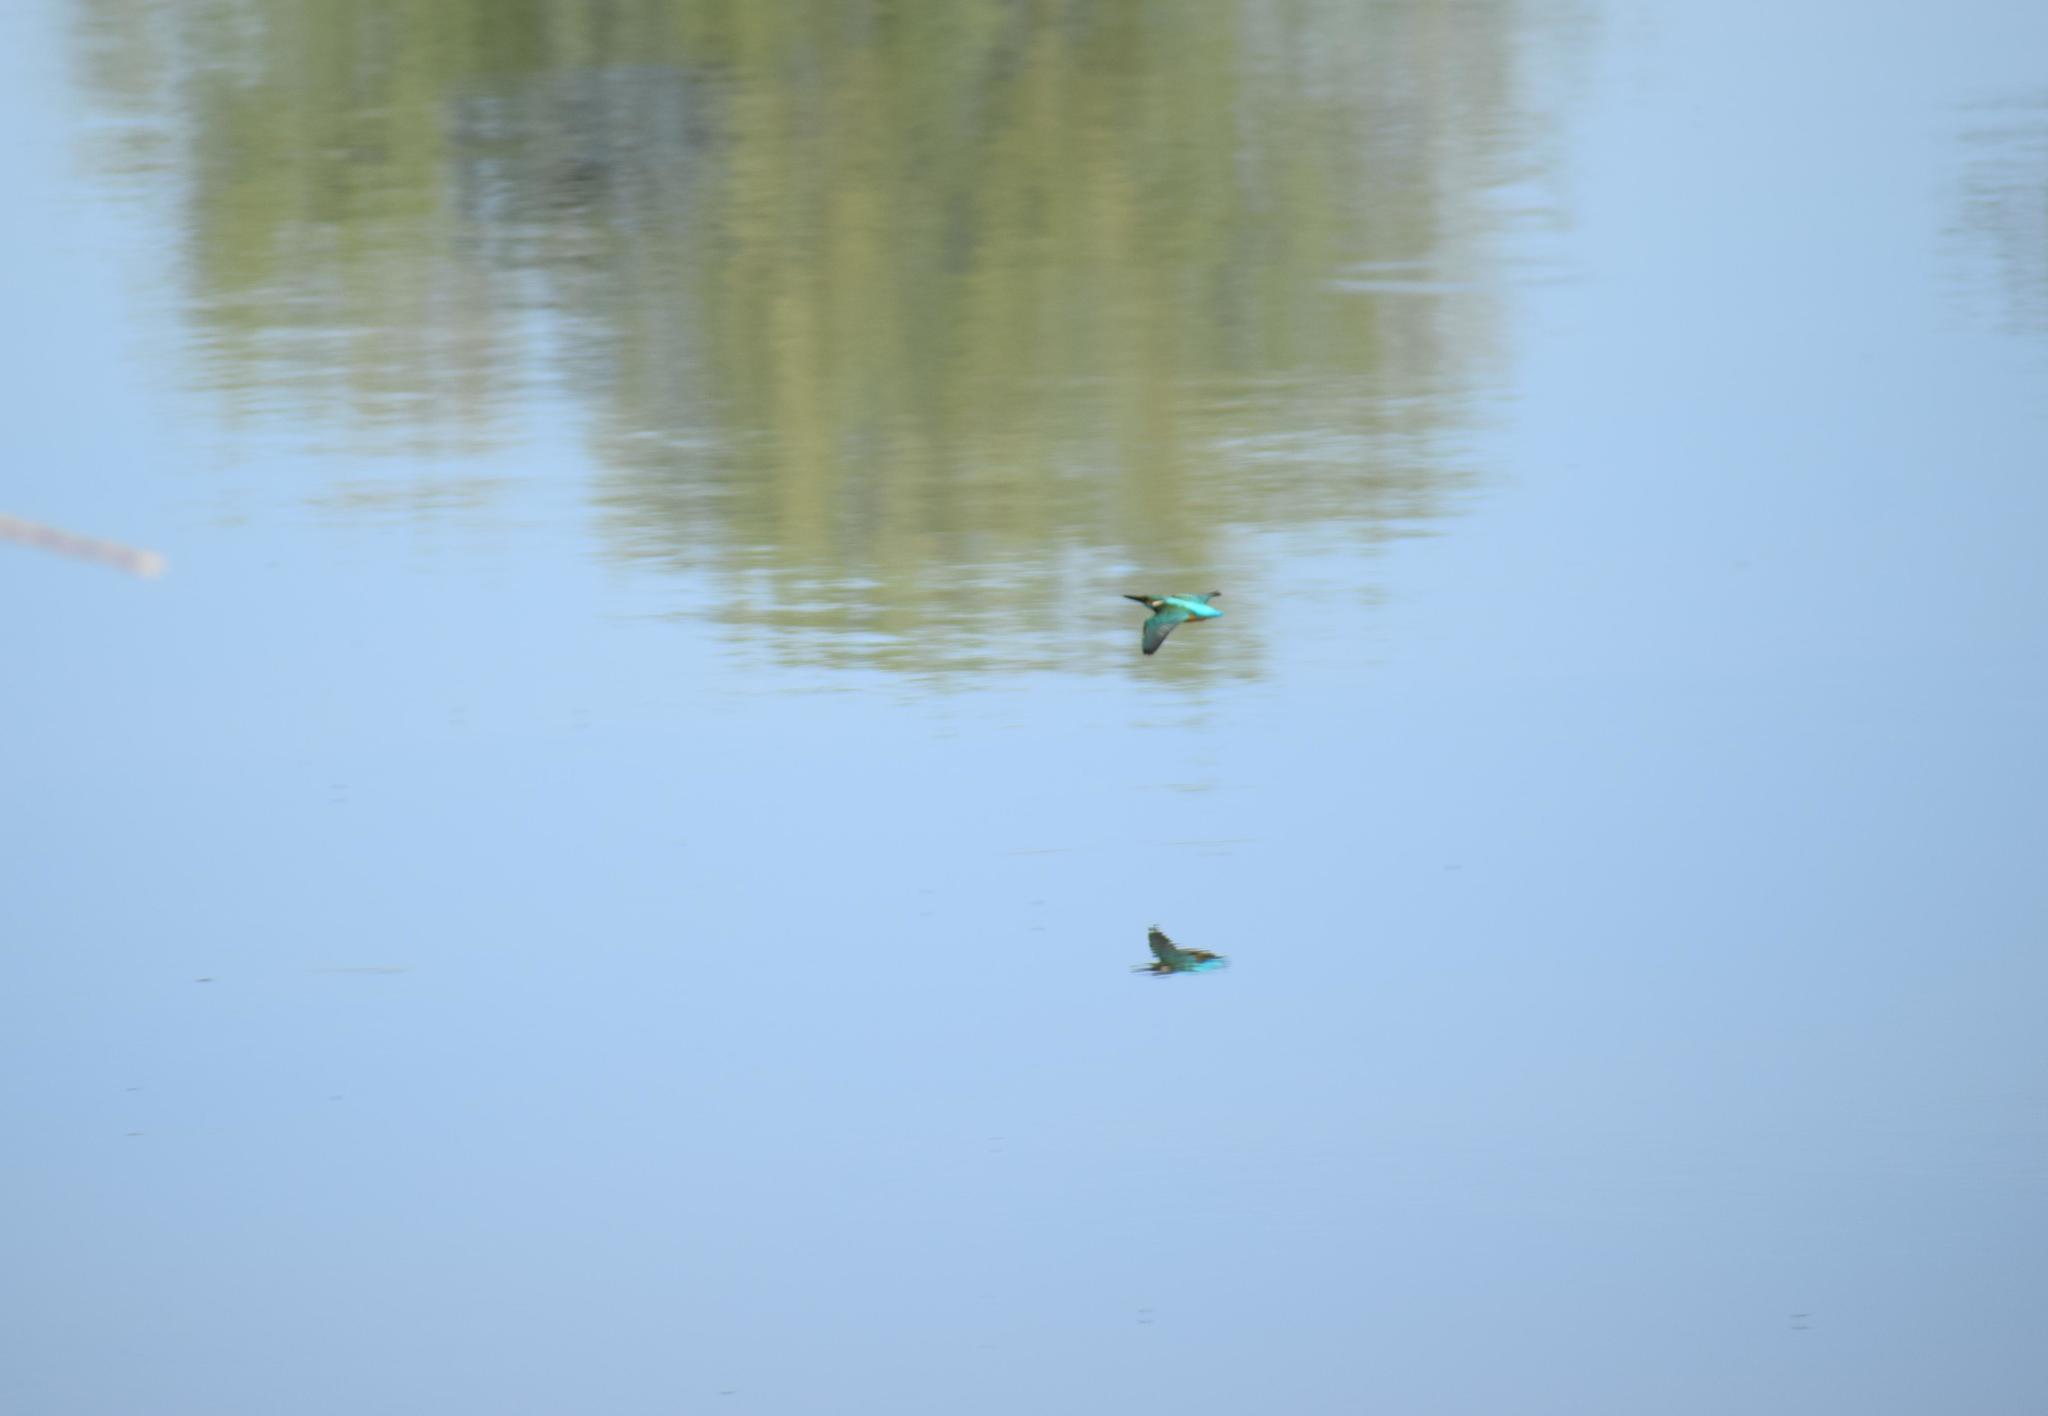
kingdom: Animalia
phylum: Chordata
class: Aves
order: Coraciiformes
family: Alcedinidae
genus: Alcedo
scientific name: Alcedo atthis
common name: Common kingfisher
